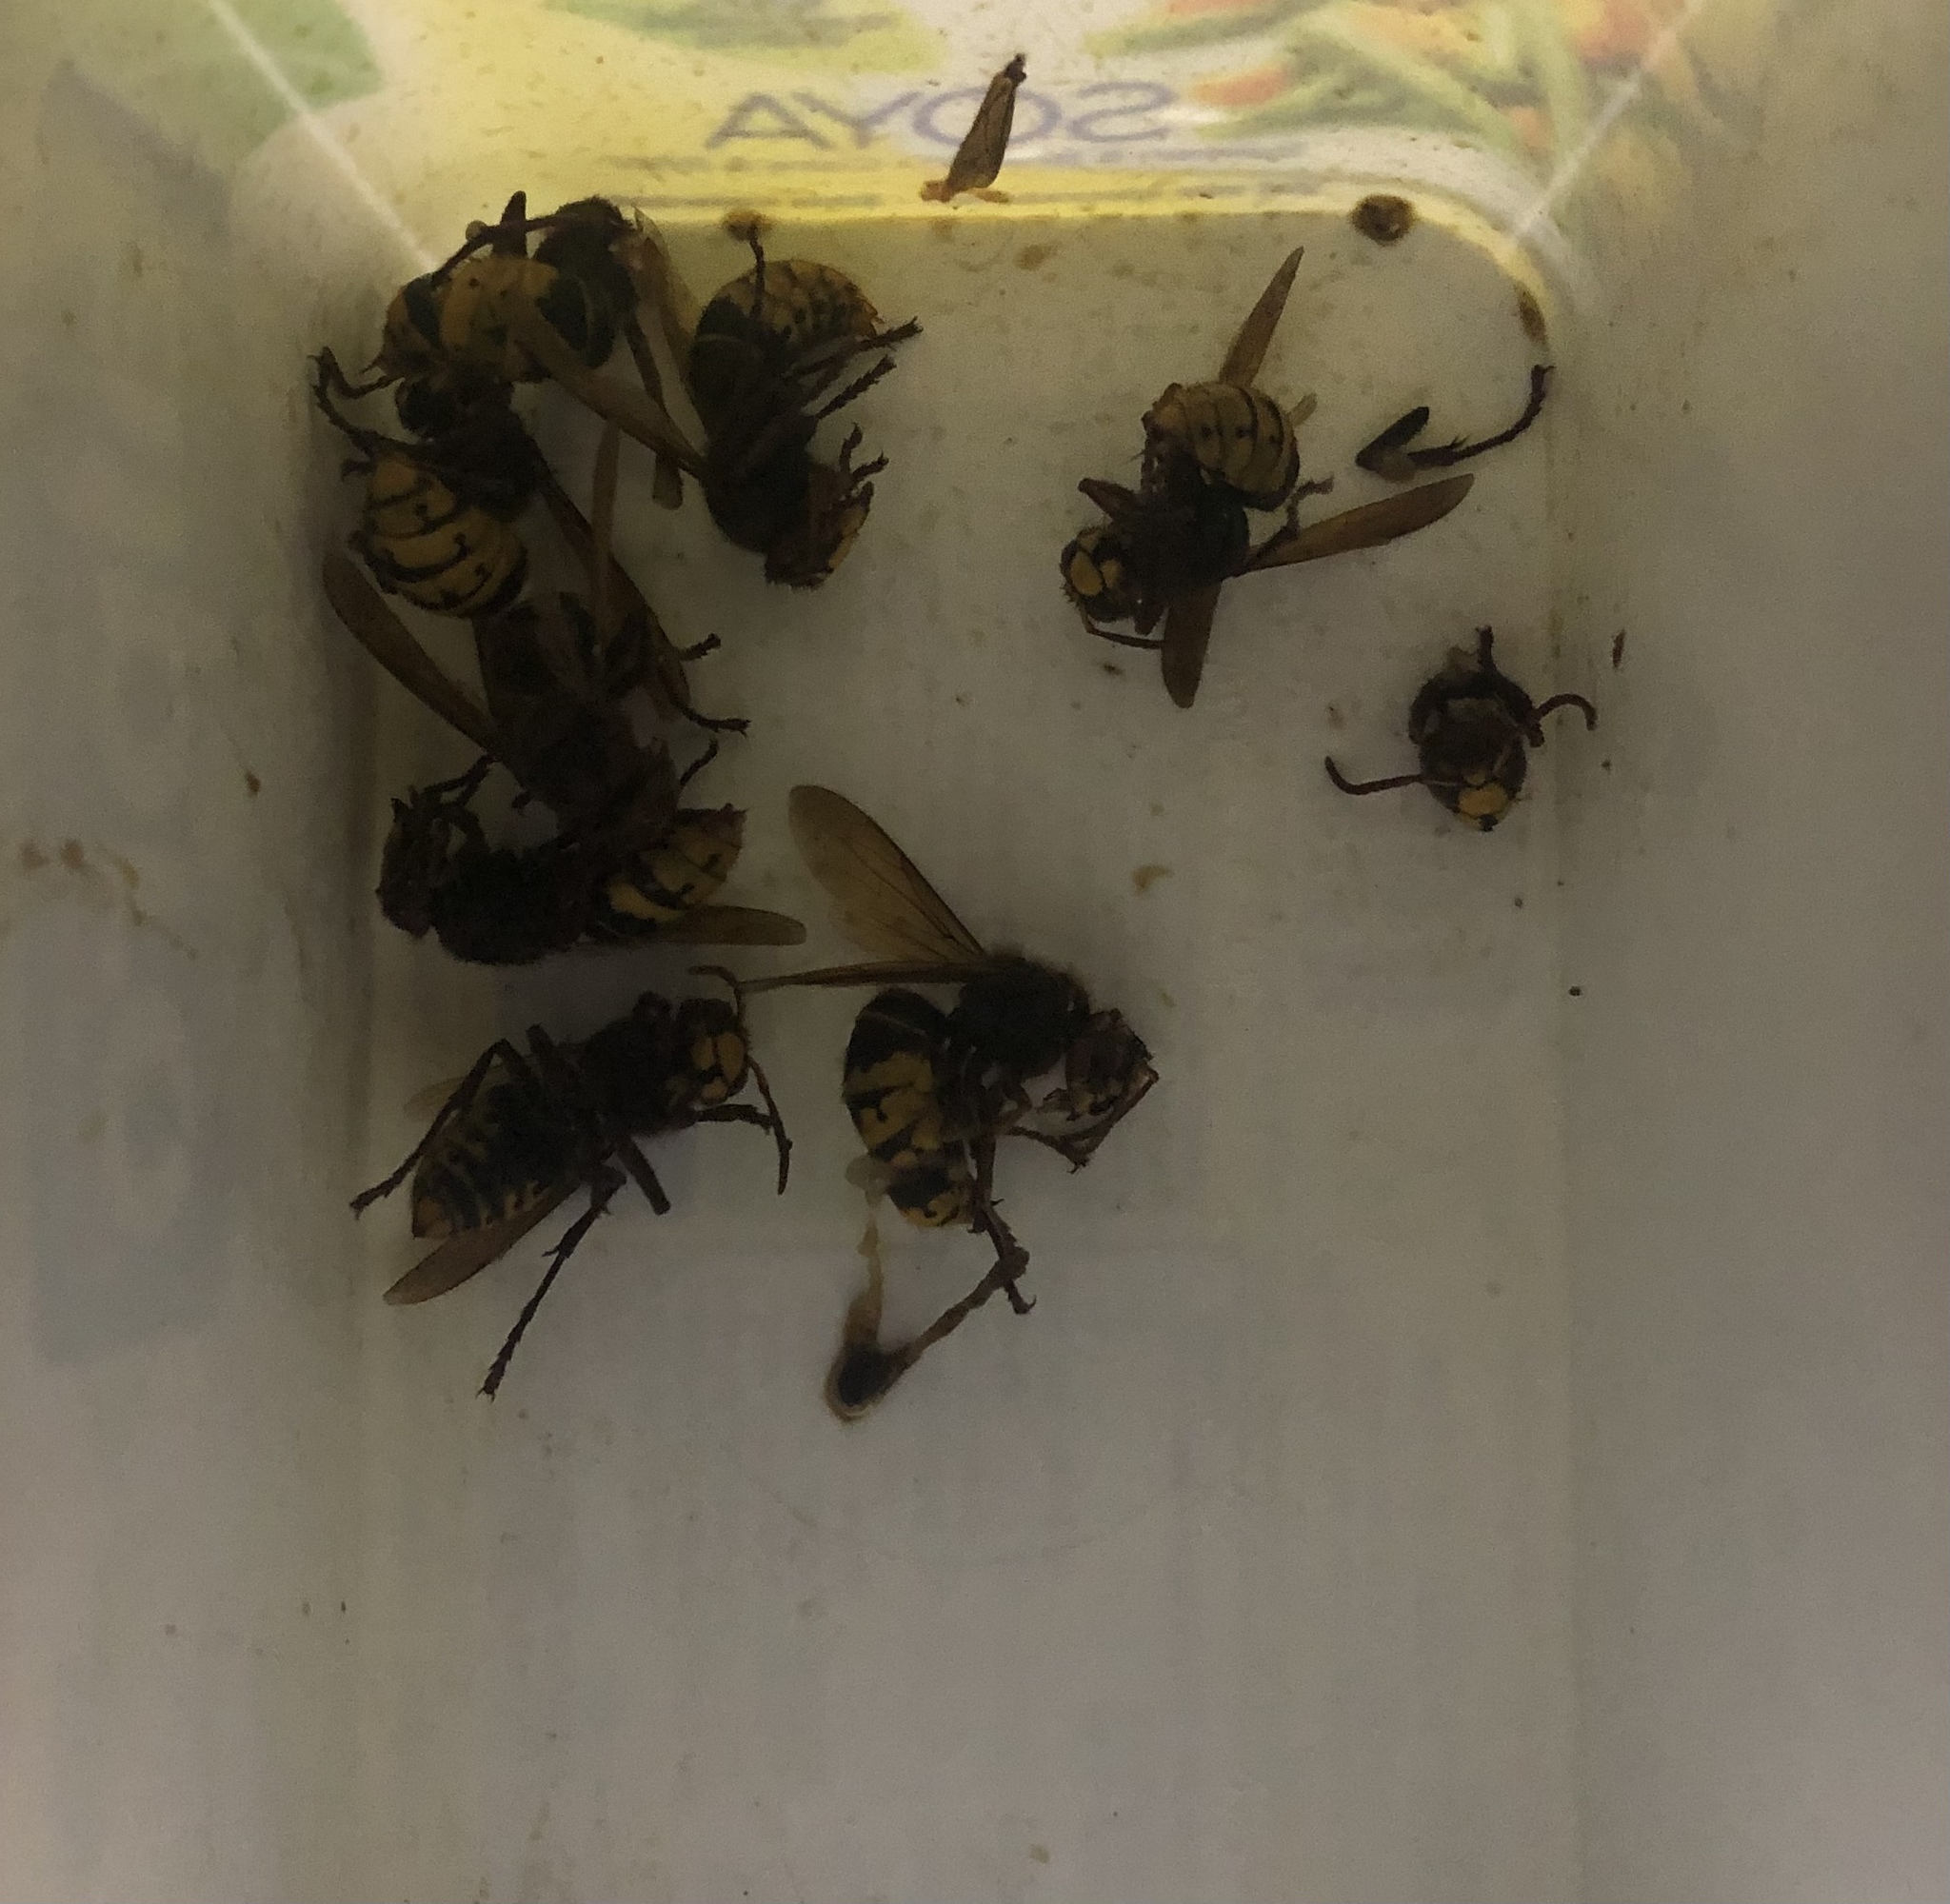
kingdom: Animalia
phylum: Arthropoda
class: Insecta
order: Hymenoptera
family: Vespidae
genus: Vespa
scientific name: Vespa crabro
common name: Hornet
